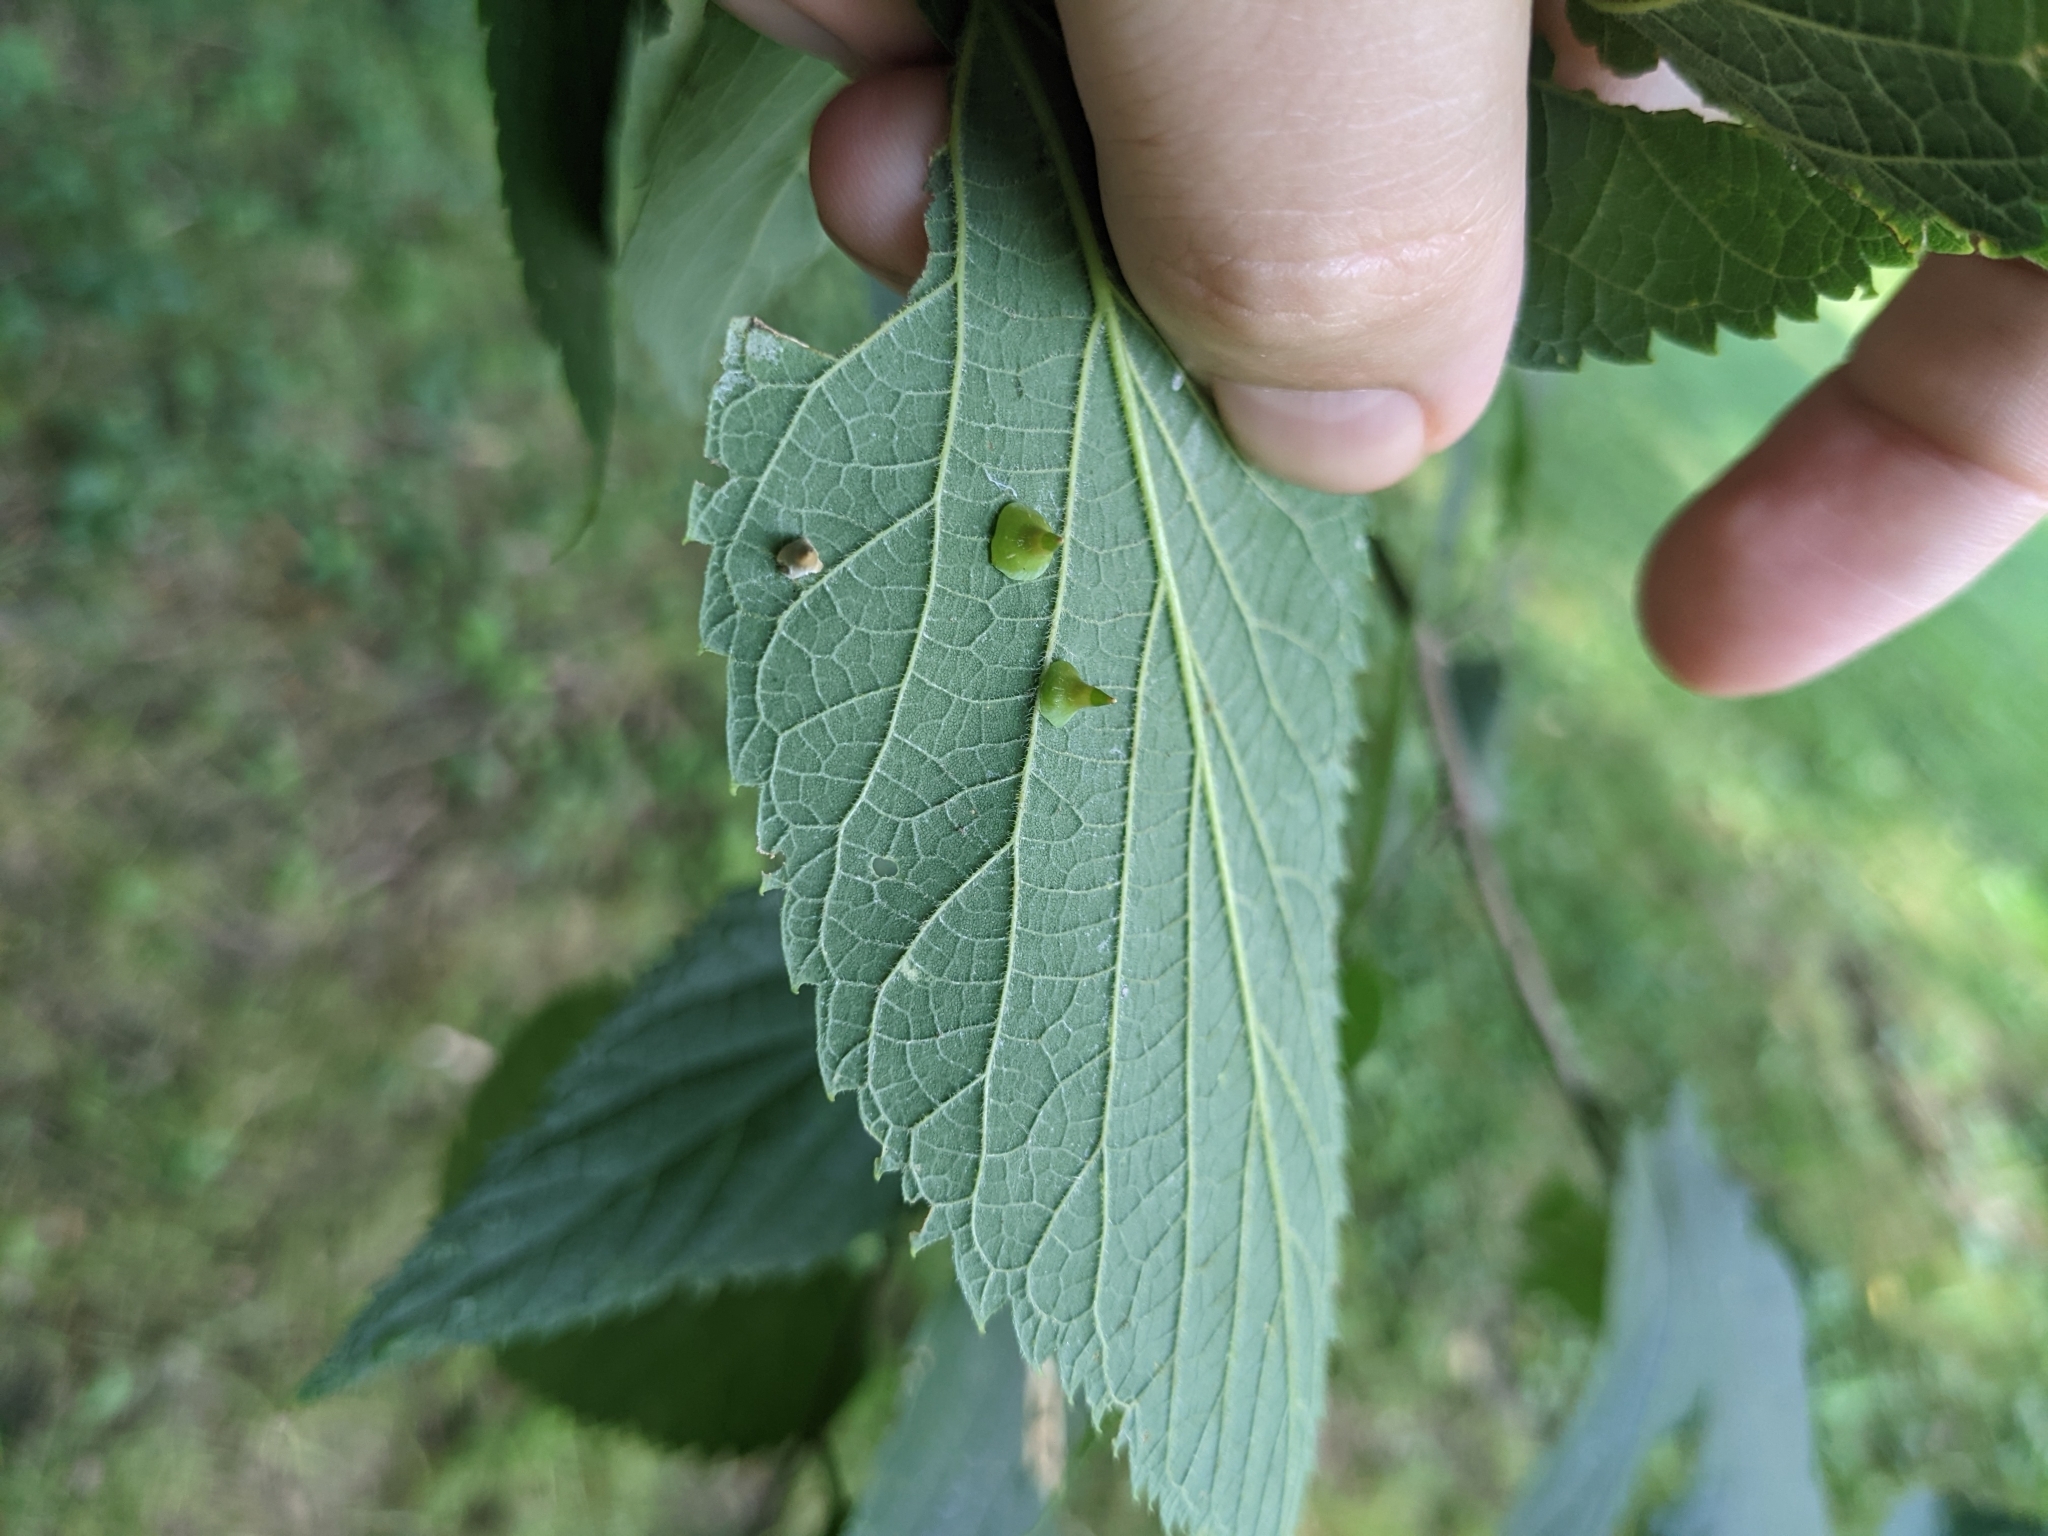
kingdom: Animalia
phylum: Arthropoda
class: Insecta
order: Diptera
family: Cecidomyiidae
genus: Celticecis
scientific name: Celticecis spiniformis
